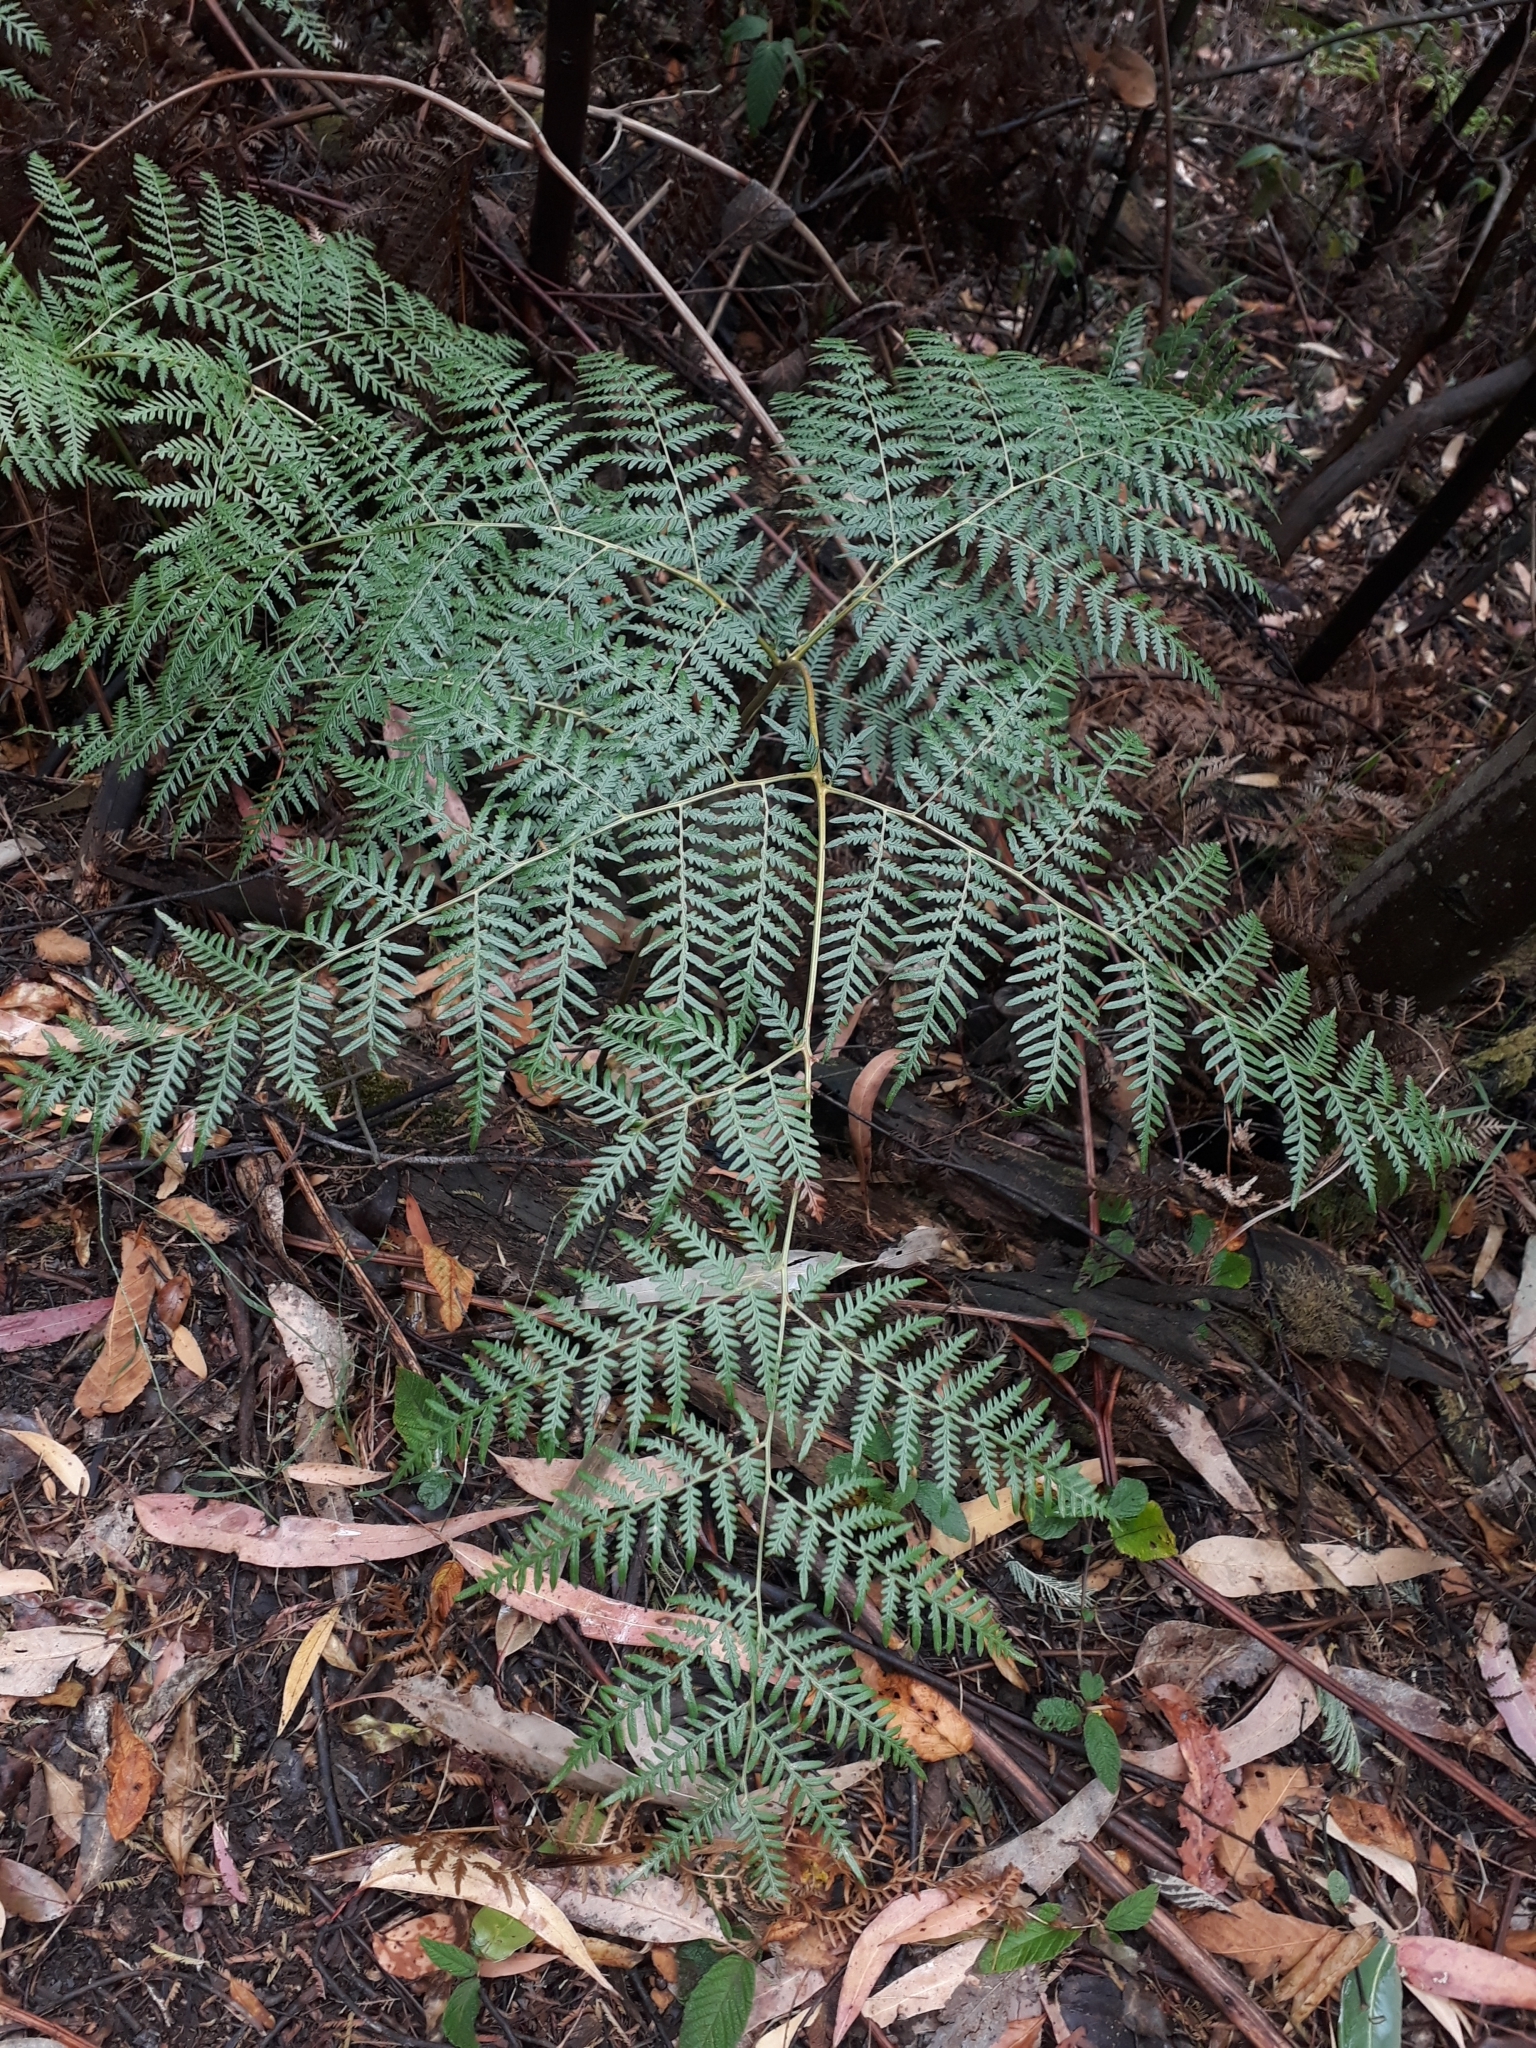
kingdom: Plantae
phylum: Tracheophyta
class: Polypodiopsida
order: Polypodiales
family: Dennstaedtiaceae
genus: Pteridium
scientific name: Pteridium esculentum
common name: Bracken fern
